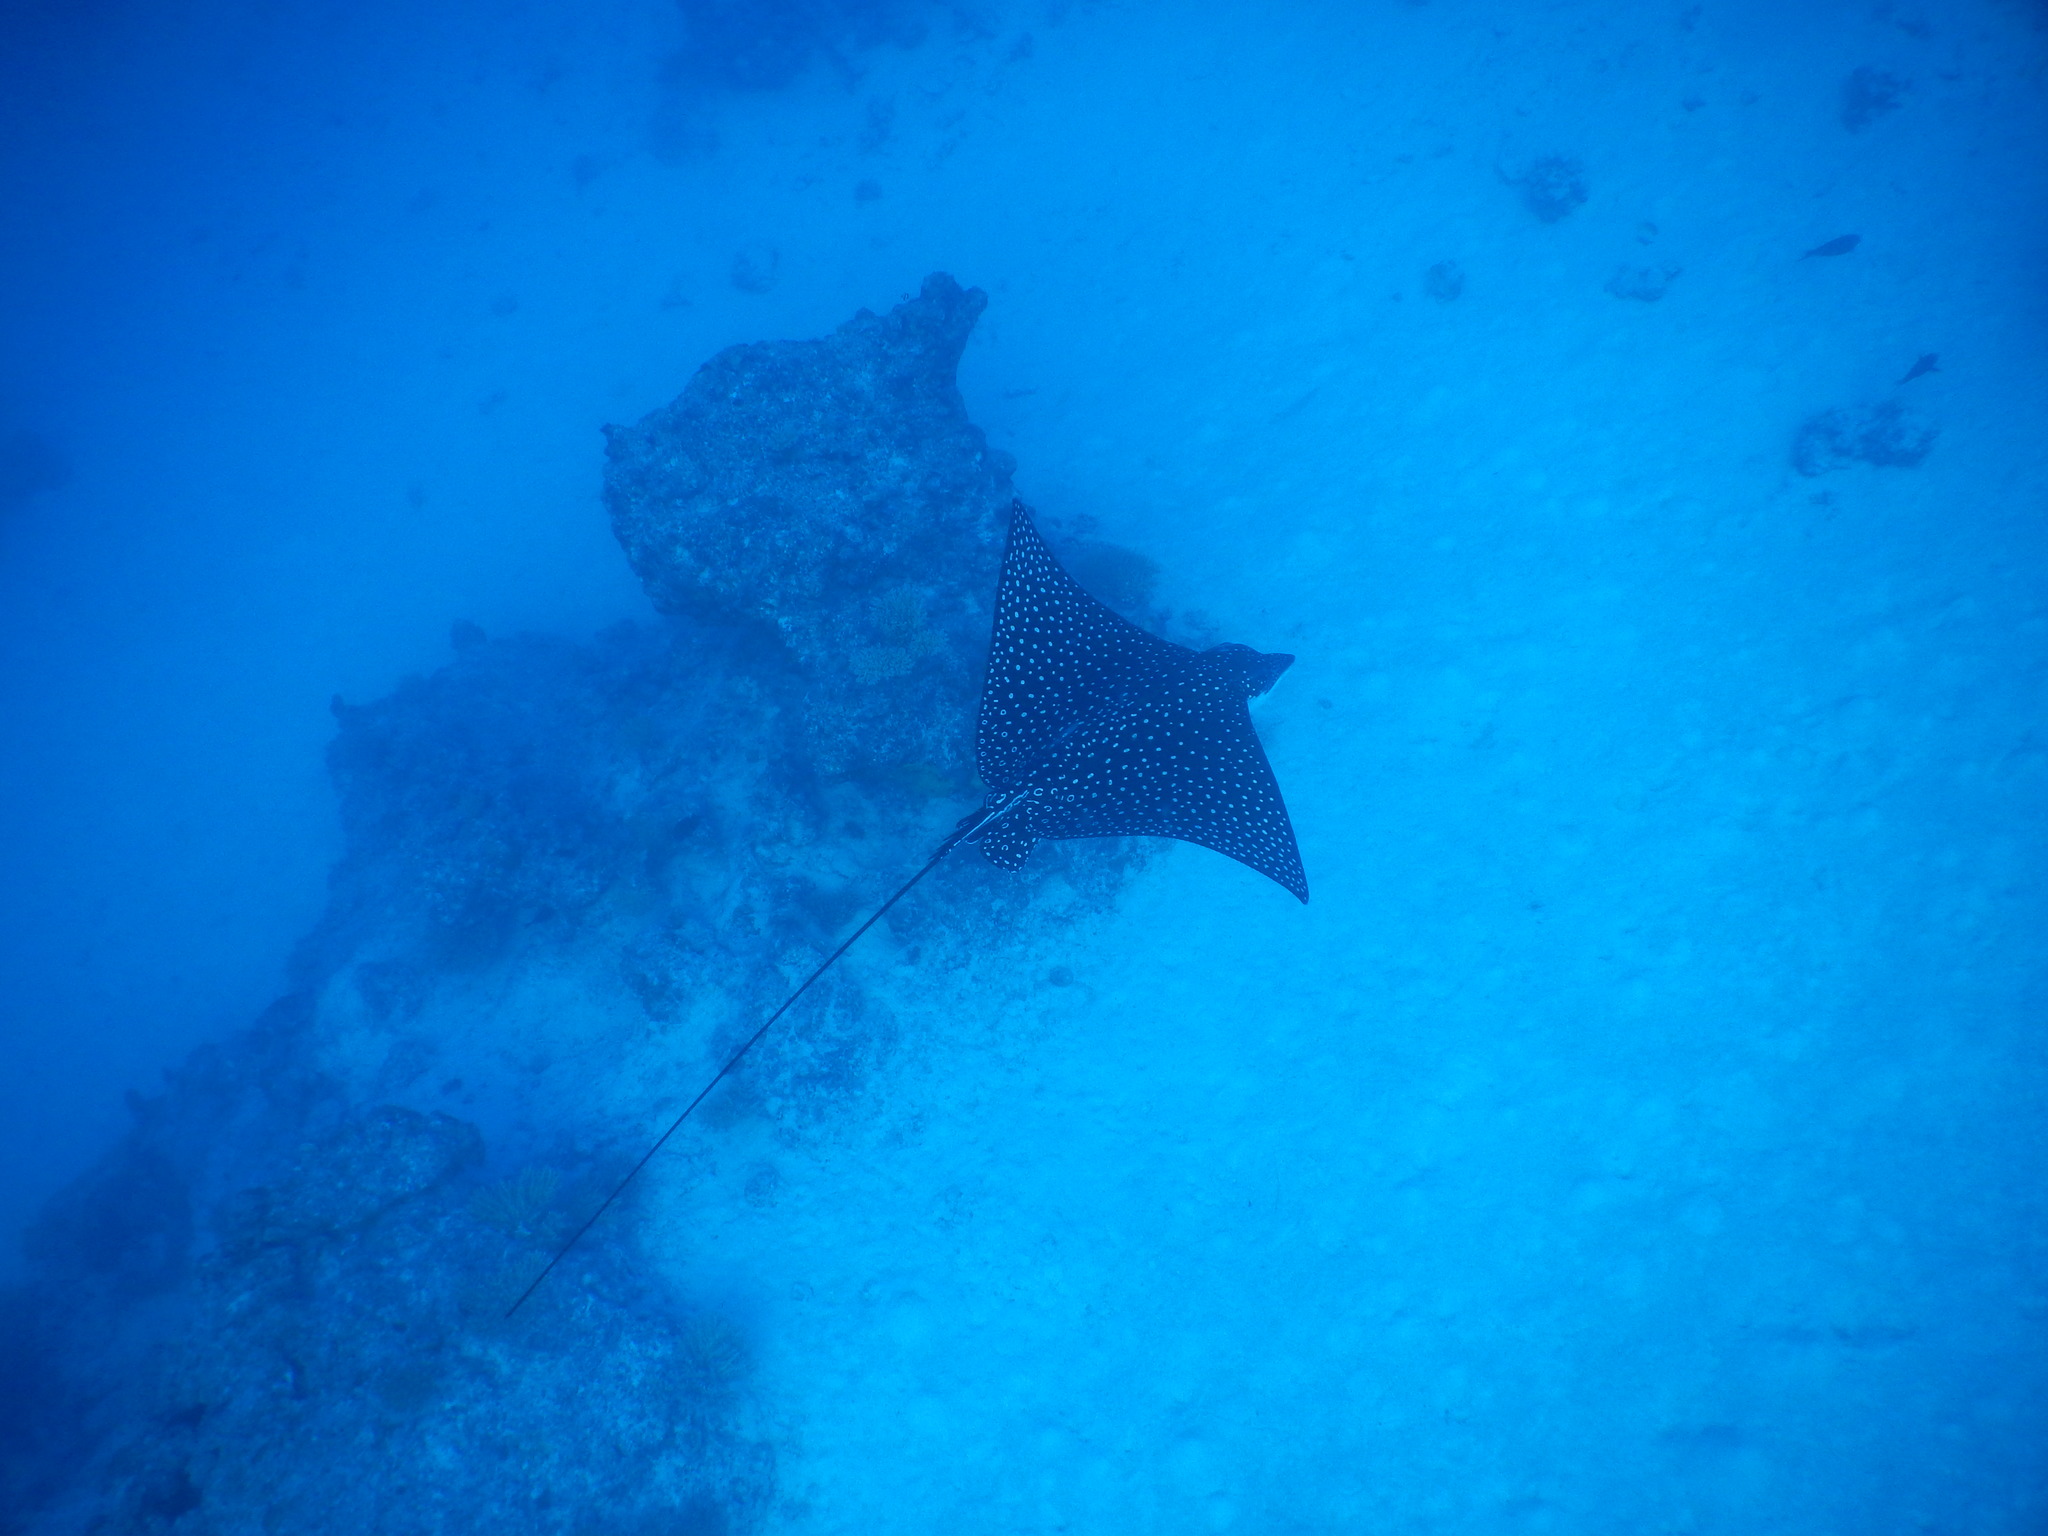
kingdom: Animalia
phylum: Chordata
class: Elasmobranchii
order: Myliobatiformes
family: Myliobatidae
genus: Aetobatus
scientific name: Aetobatus ocellatus
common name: Ocellated eagle ray
